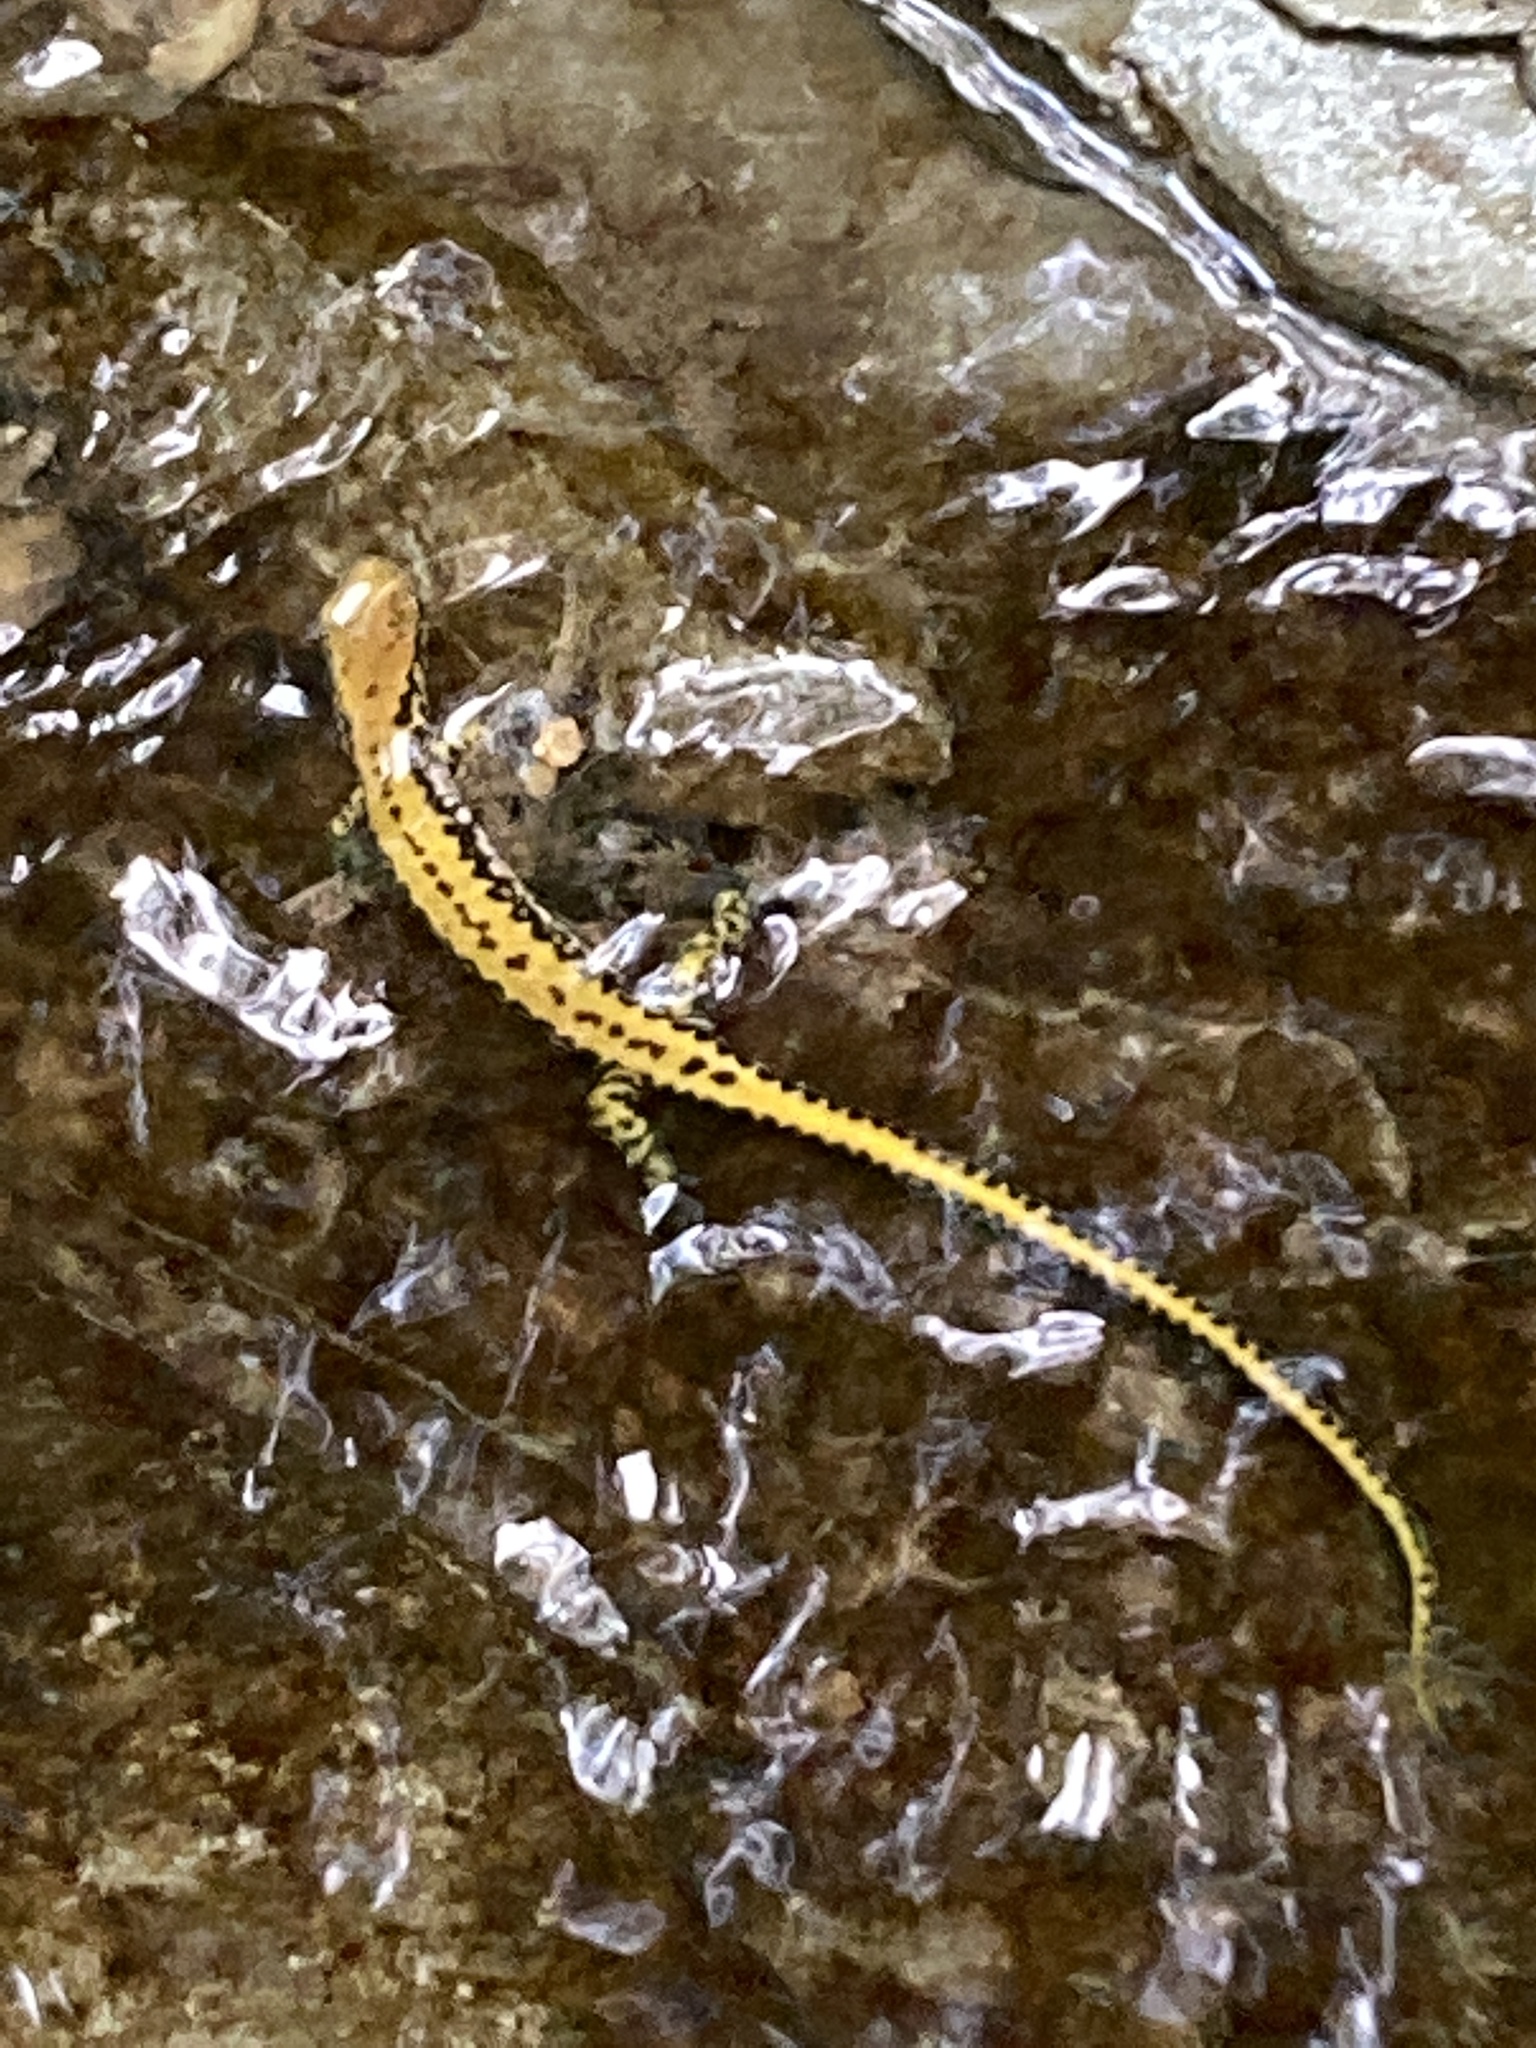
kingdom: Animalia
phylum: Chordata
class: Amphibia
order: Caudata
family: Plethodontidae
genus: Eurycea
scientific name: Eurycea longicauda
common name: Long-tailed salamander
